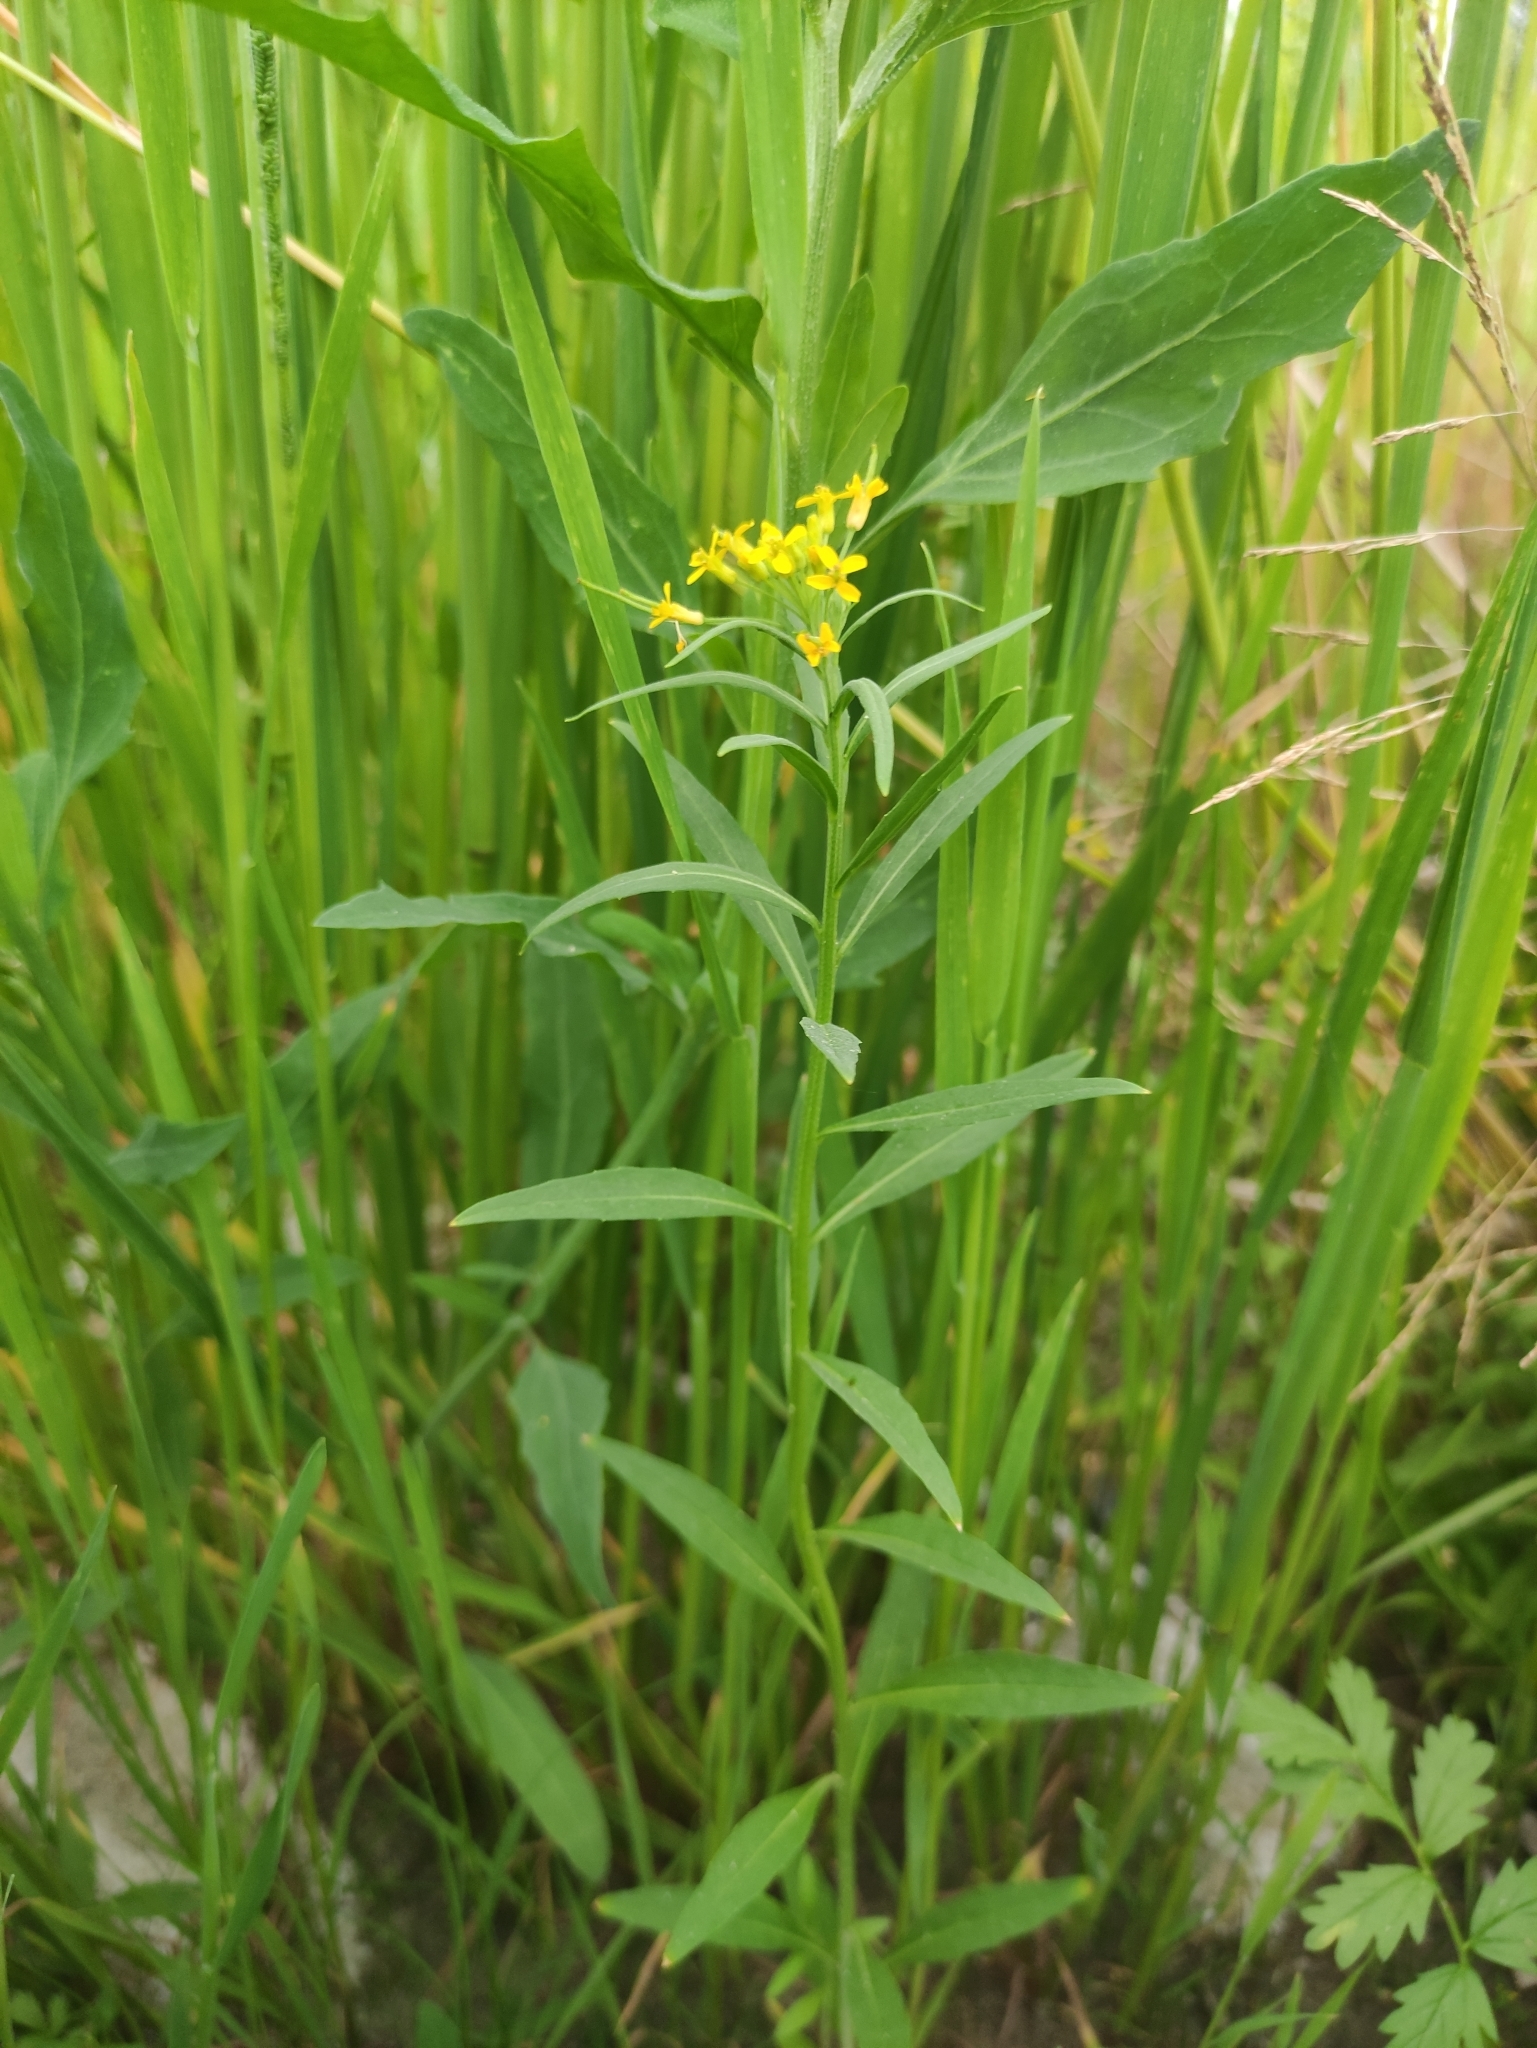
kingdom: Plantae
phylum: Tracheophyta
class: Magnoliopsida
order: Brassicales
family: Brassicaceae
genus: Erysimum
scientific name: Erysimum cheiranthoides
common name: Treacle mustard
